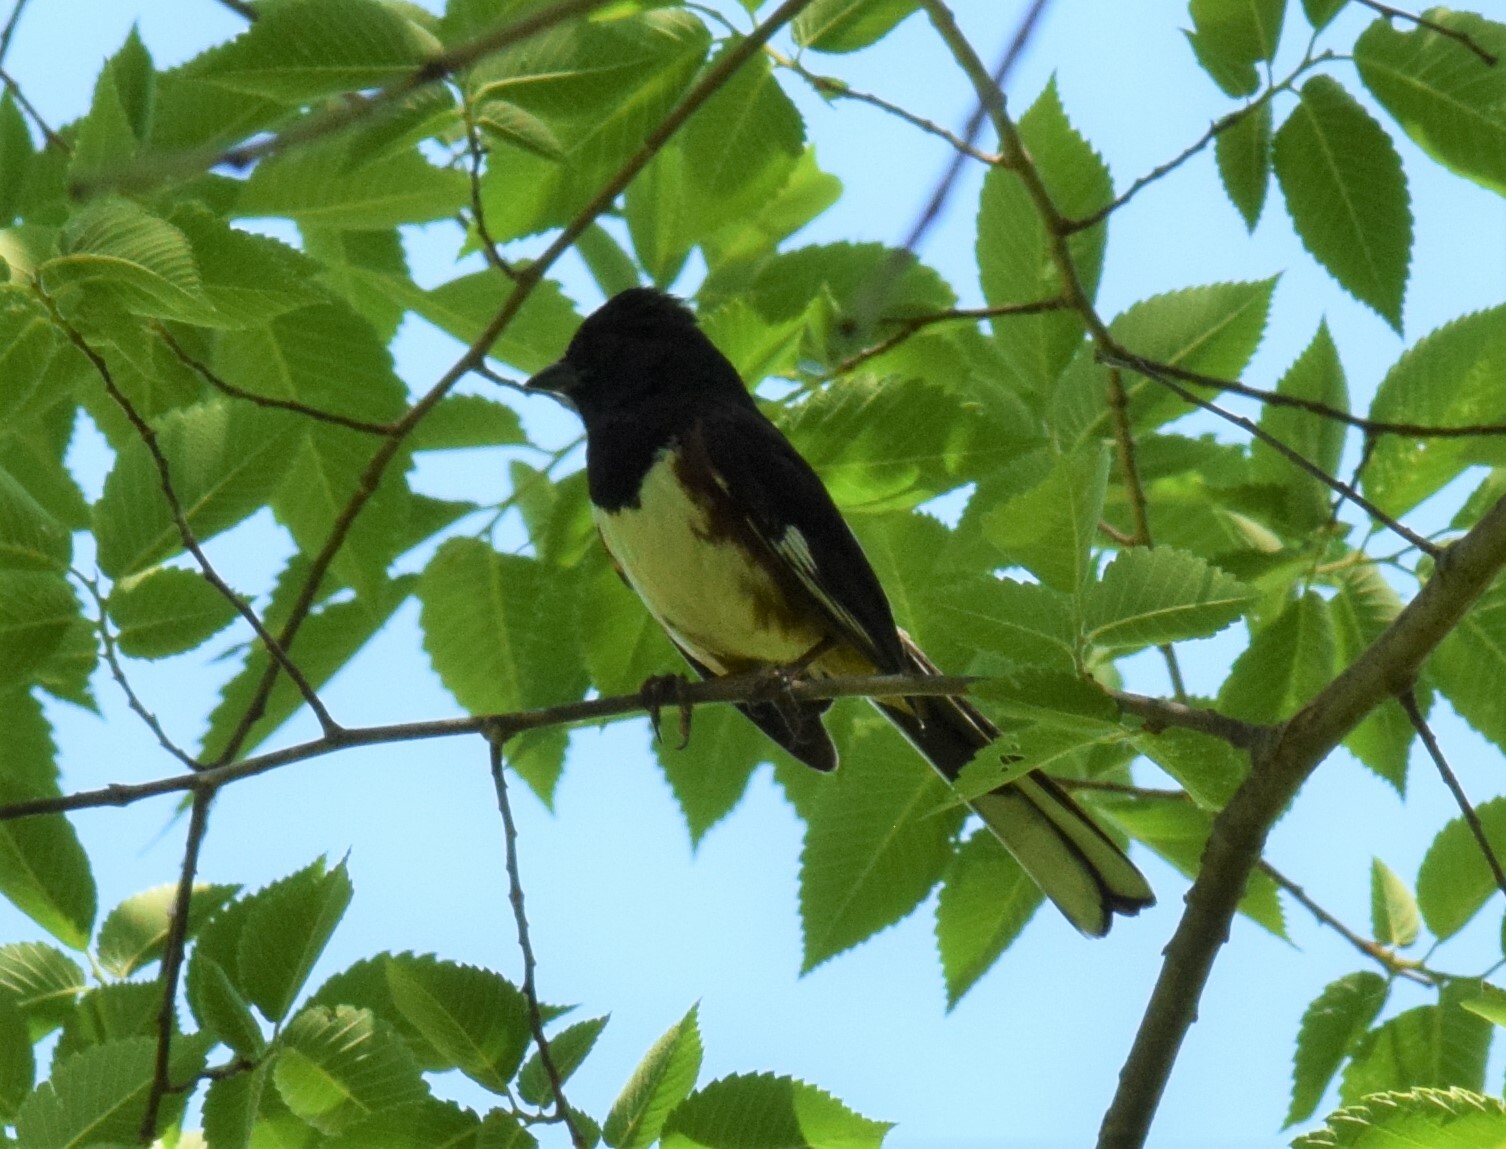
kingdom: Animalia
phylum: Chordata
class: Aves
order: Passeriformes
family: Passerellidae
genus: Pipilo
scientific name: Pipilo erythrophthalmus
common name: Eastern towhee
